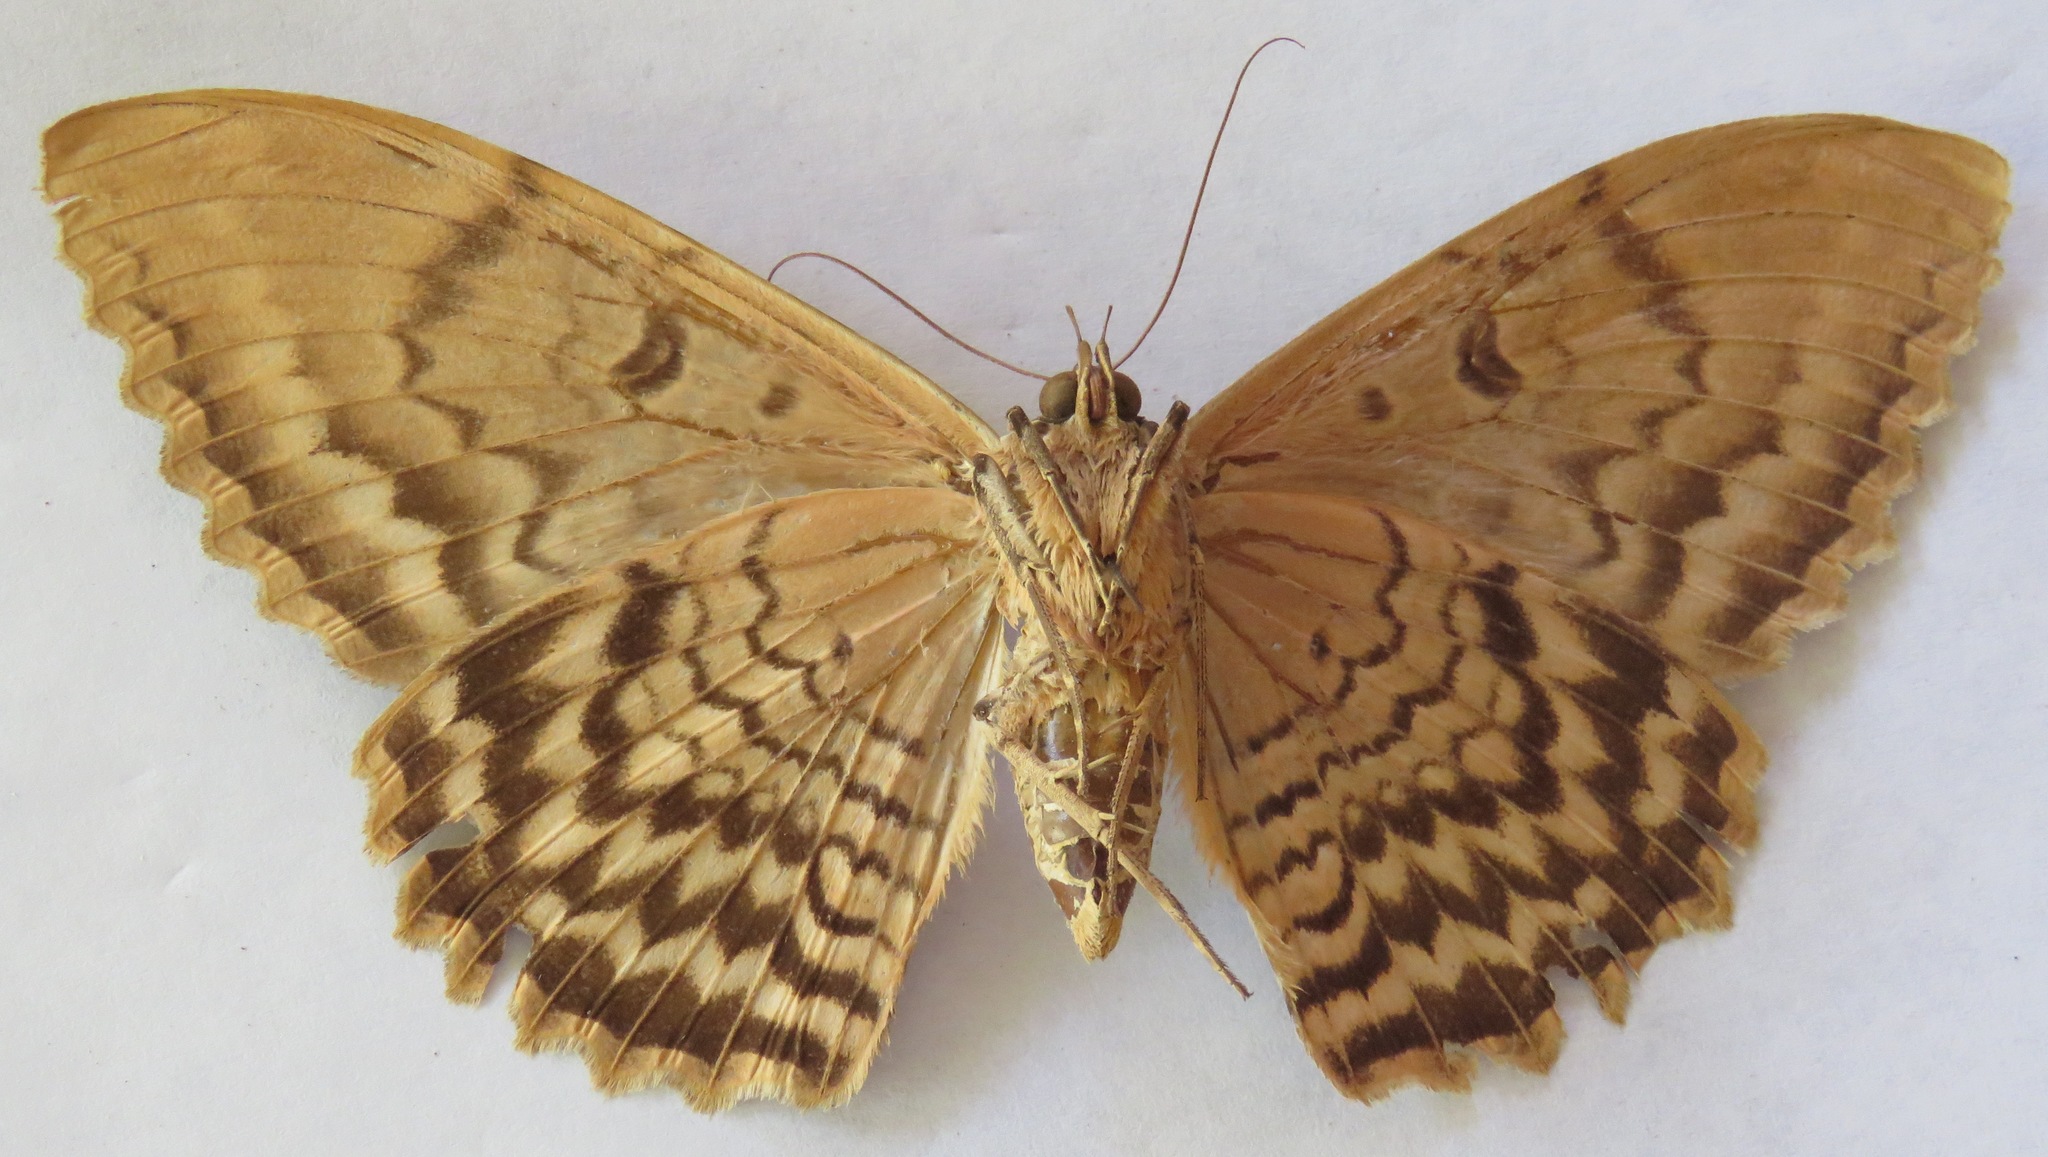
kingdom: Animalia
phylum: Arthropoda
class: Insecta
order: Lepidoptera
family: Erebidae
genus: Thysania
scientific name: Thysania zenobia
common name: Owl moth
